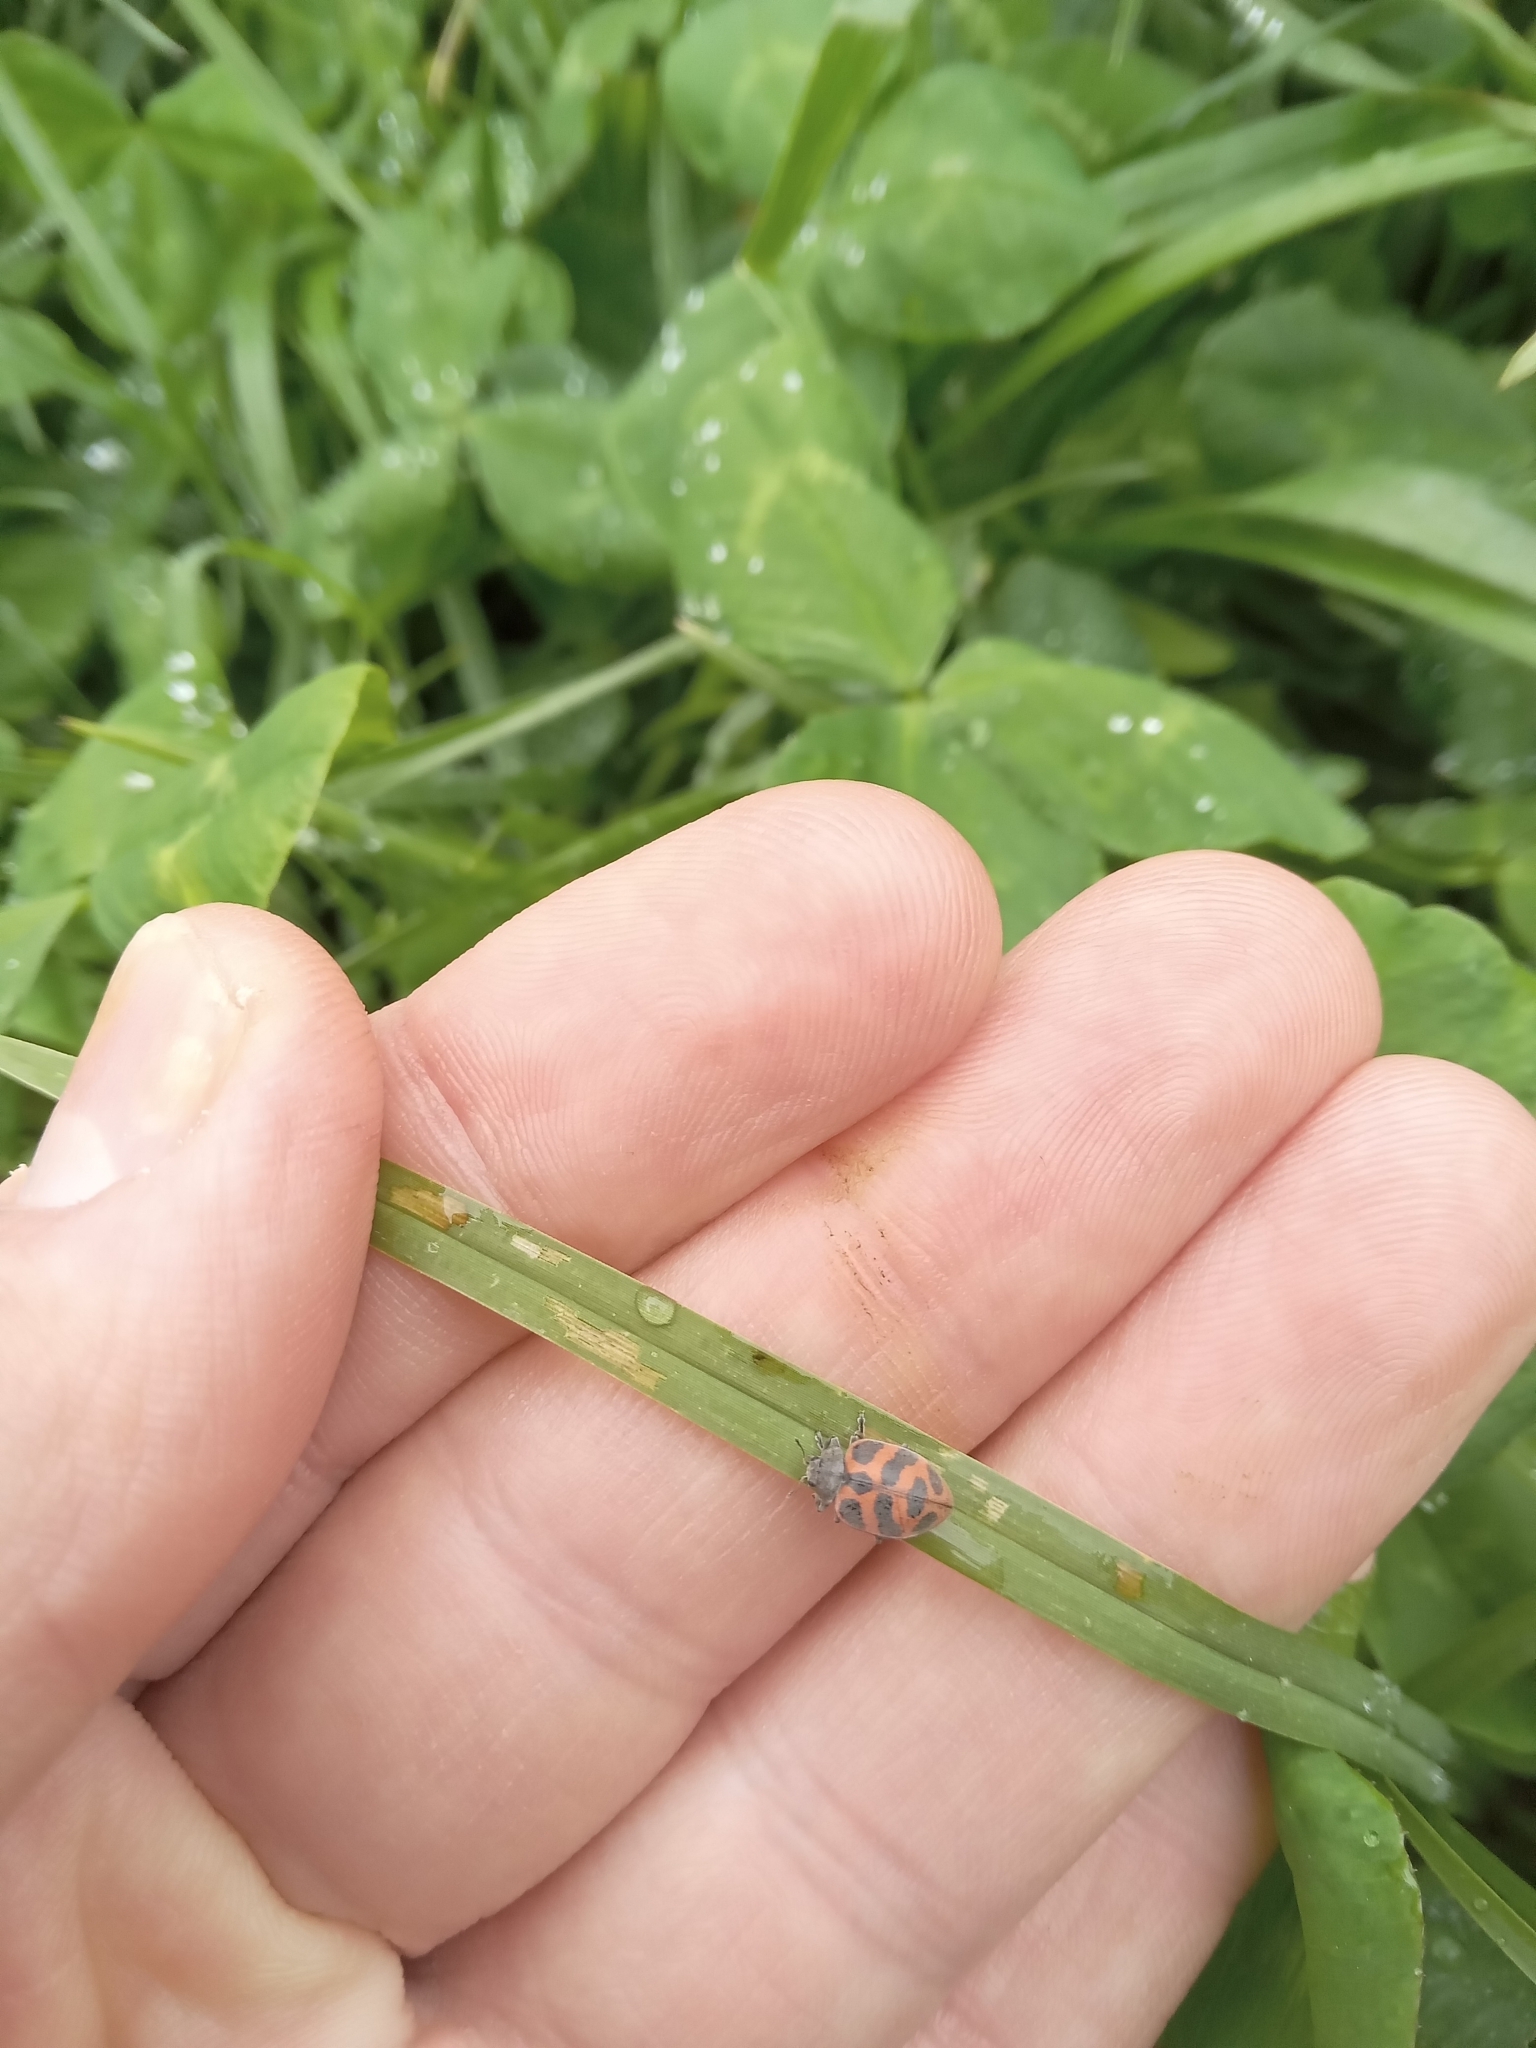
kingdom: Animalia
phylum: Arthropoda
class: Insecta
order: Coleoptera
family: Coccinellidae
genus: Chnootriba
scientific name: Chnootriba
